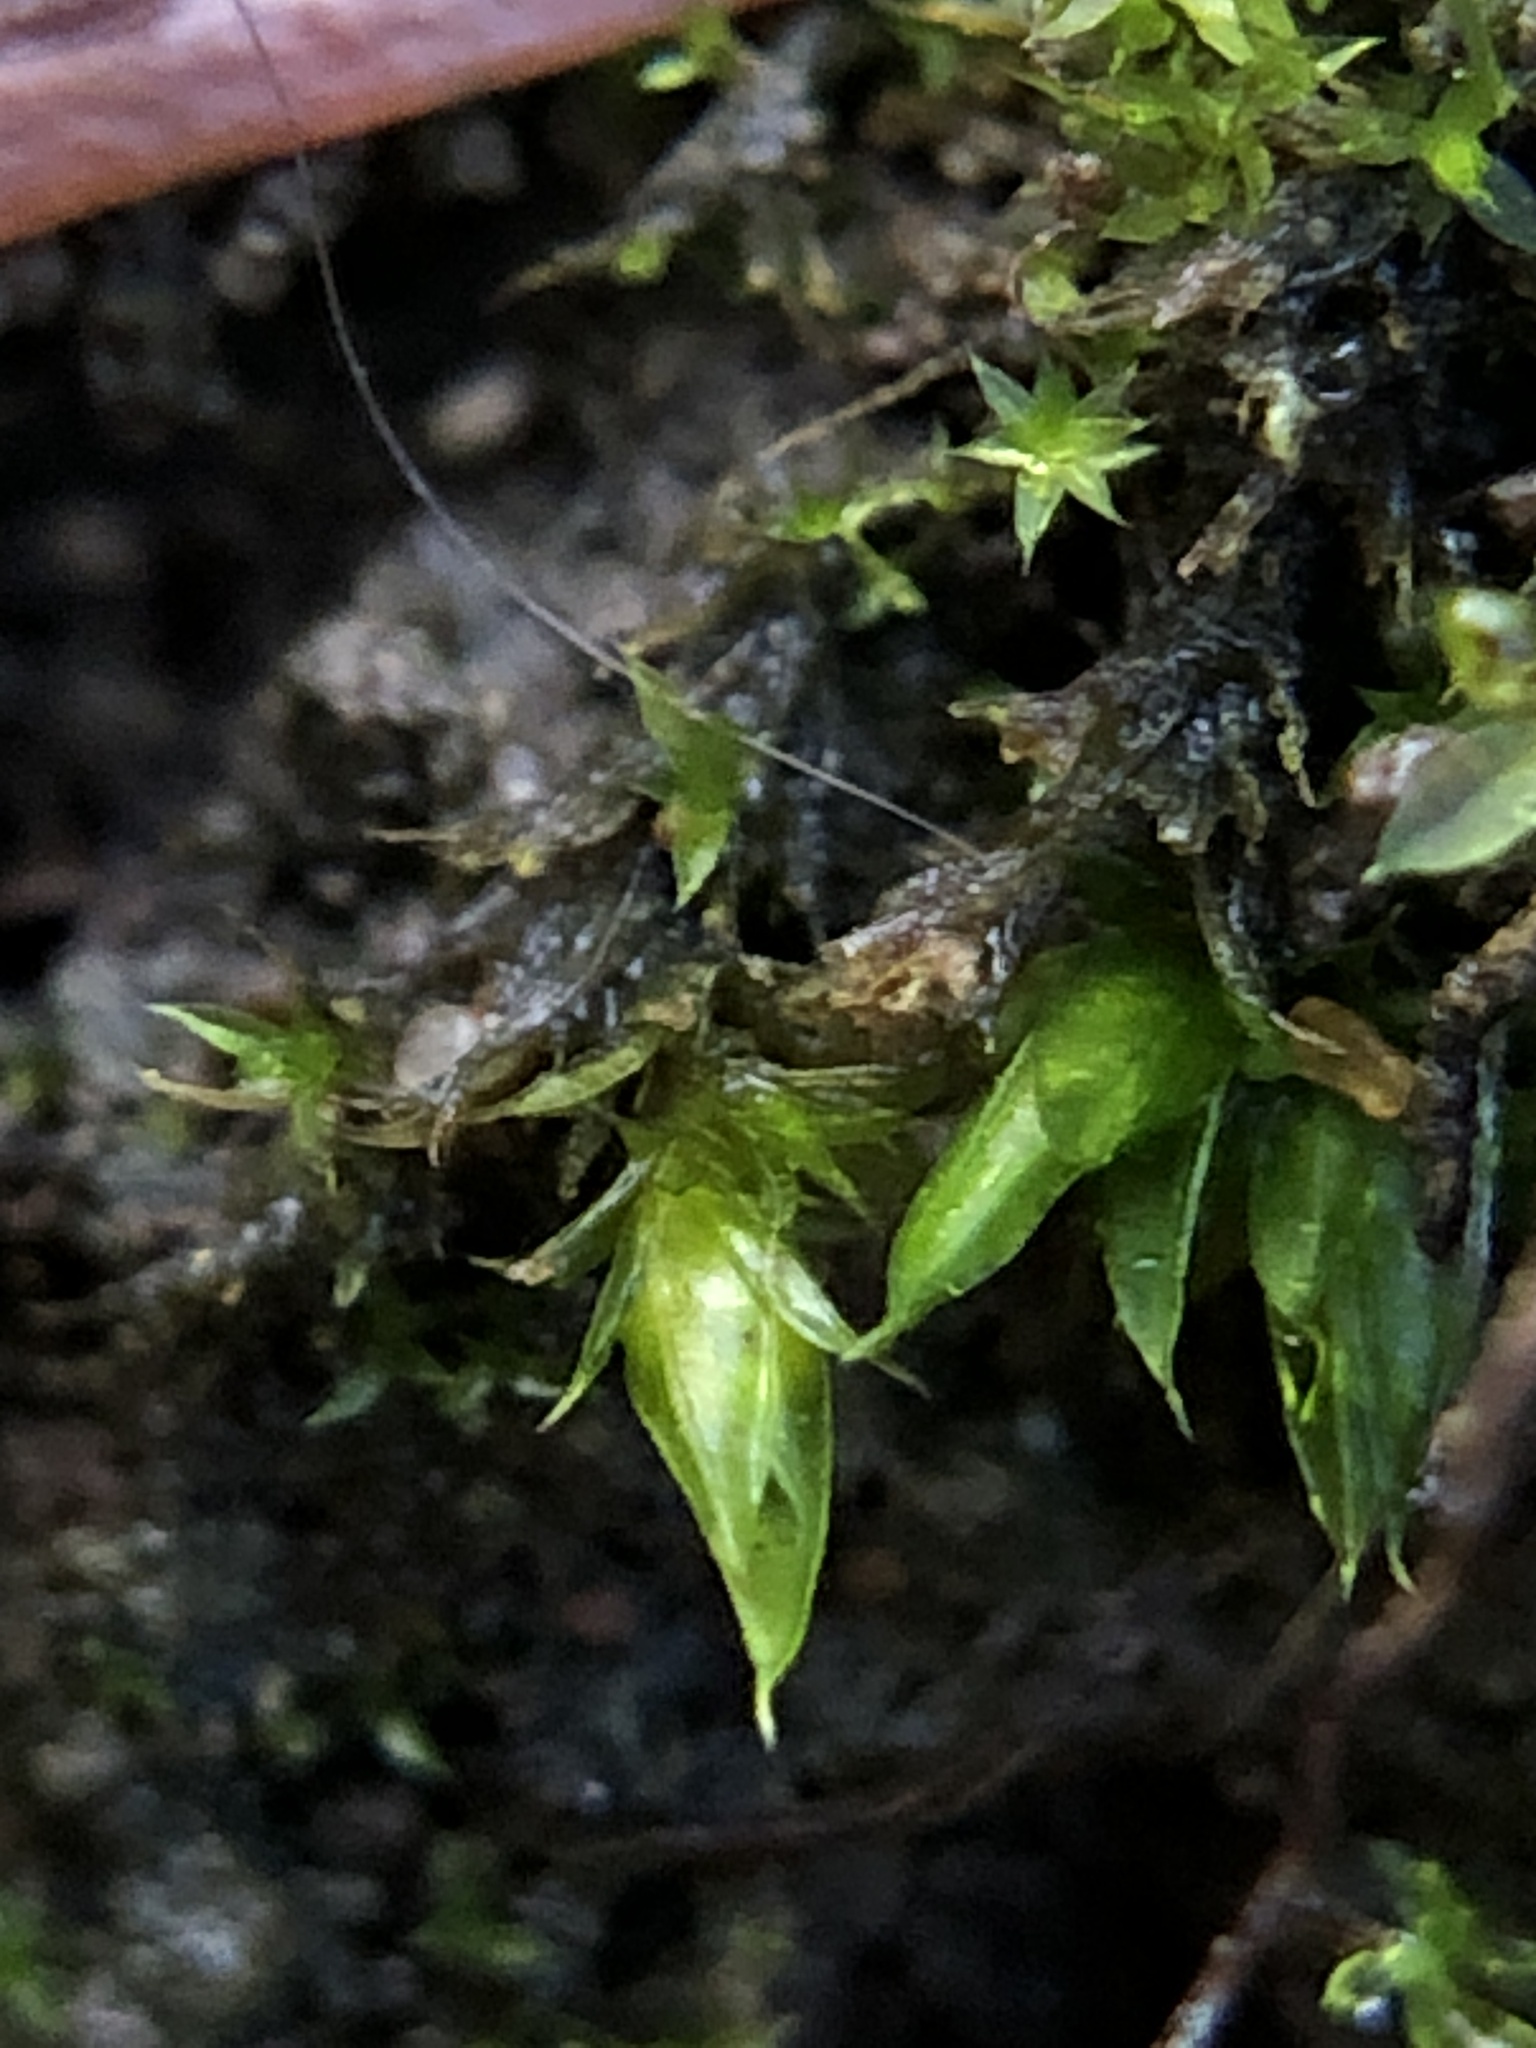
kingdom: Plantae
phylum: Bryophyta
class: Bryopsida
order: Pottiales
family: Pottiaceae
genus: Tortula
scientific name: Tortula acaulon
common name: Cuspidate earth moss
